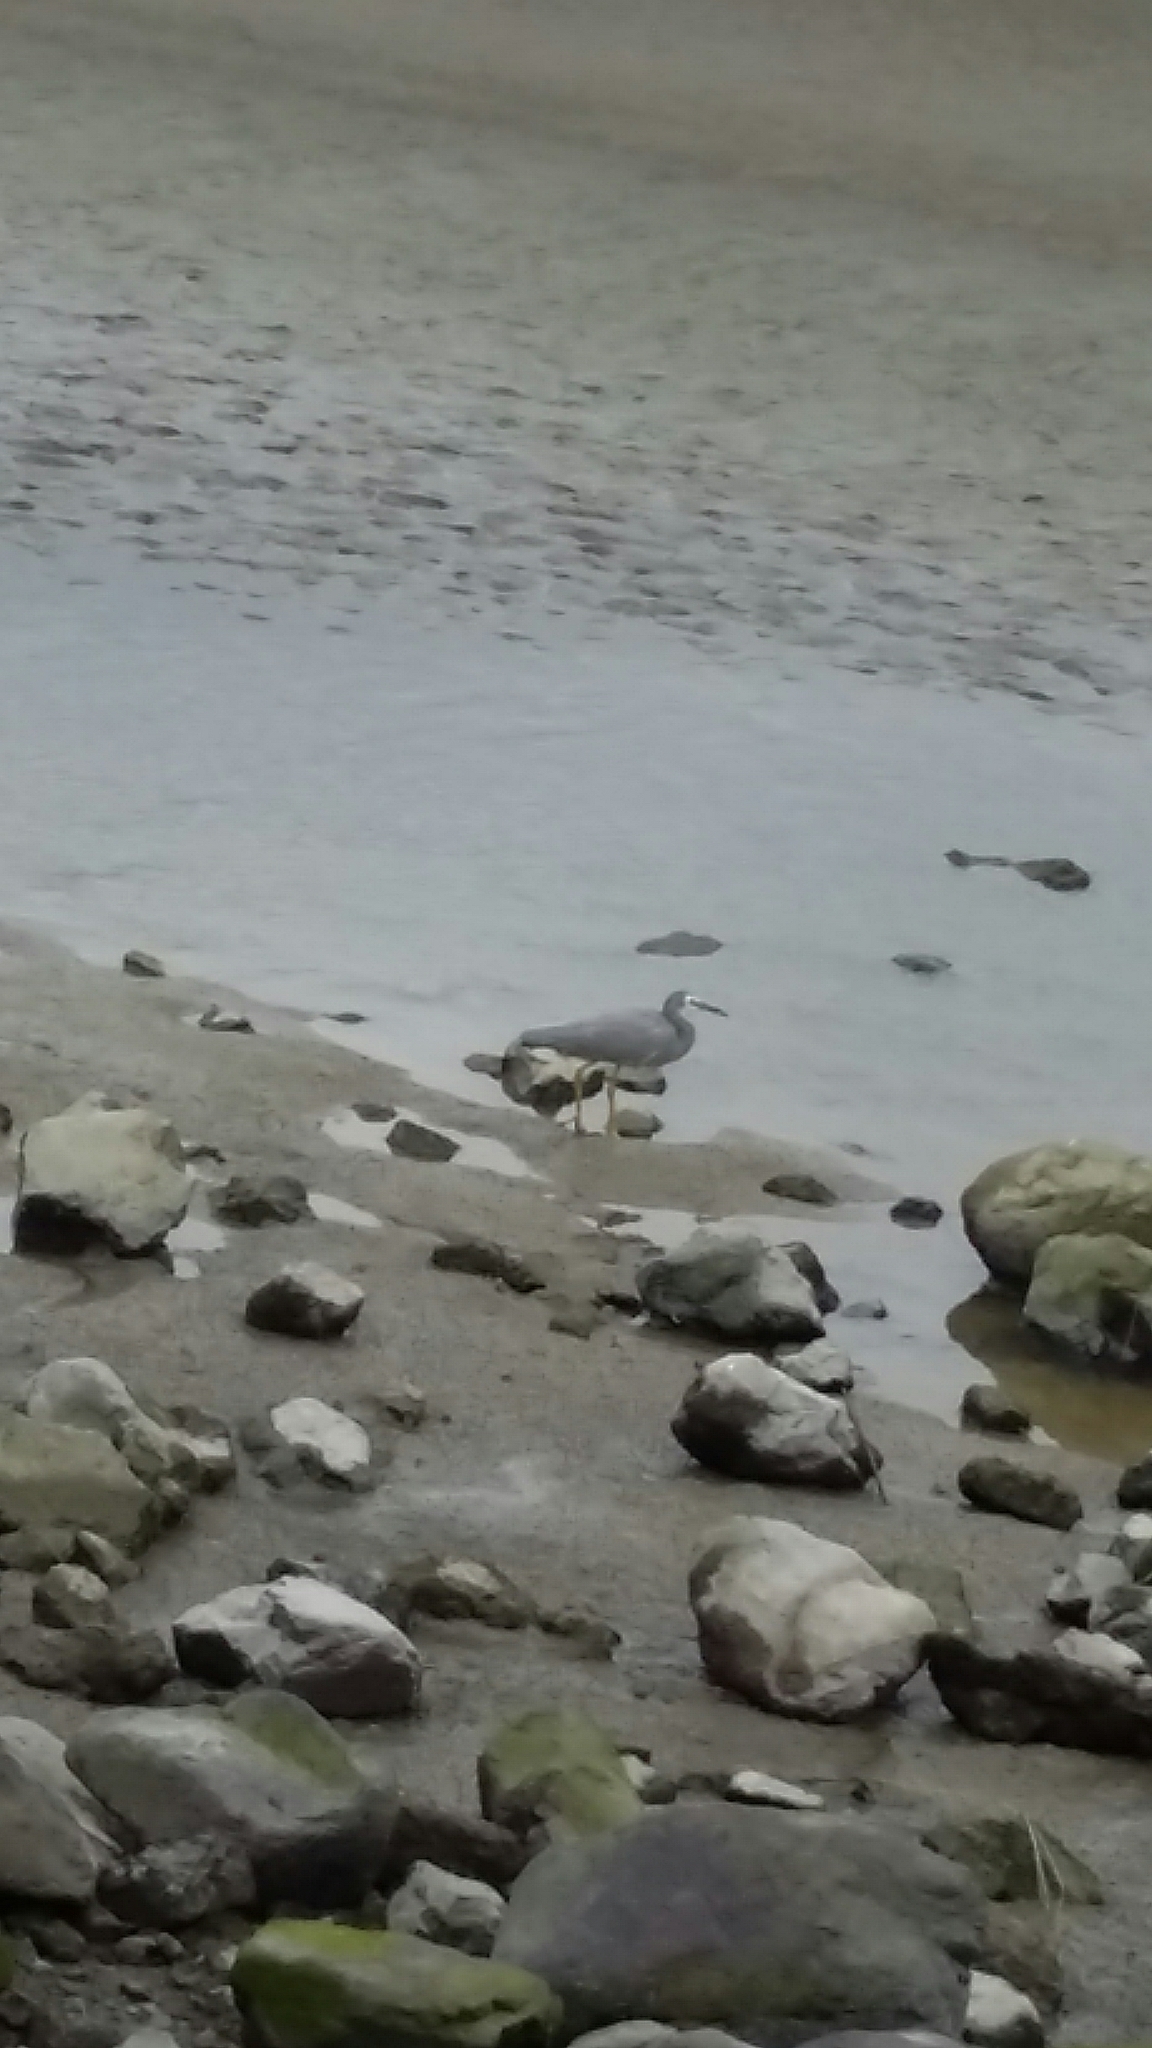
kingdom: Animalia
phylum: Chordata
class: Aves
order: Pelecaniformes
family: Ardeidae
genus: Egretta
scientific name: Egretta novaehollandiae
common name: White-faced heron
